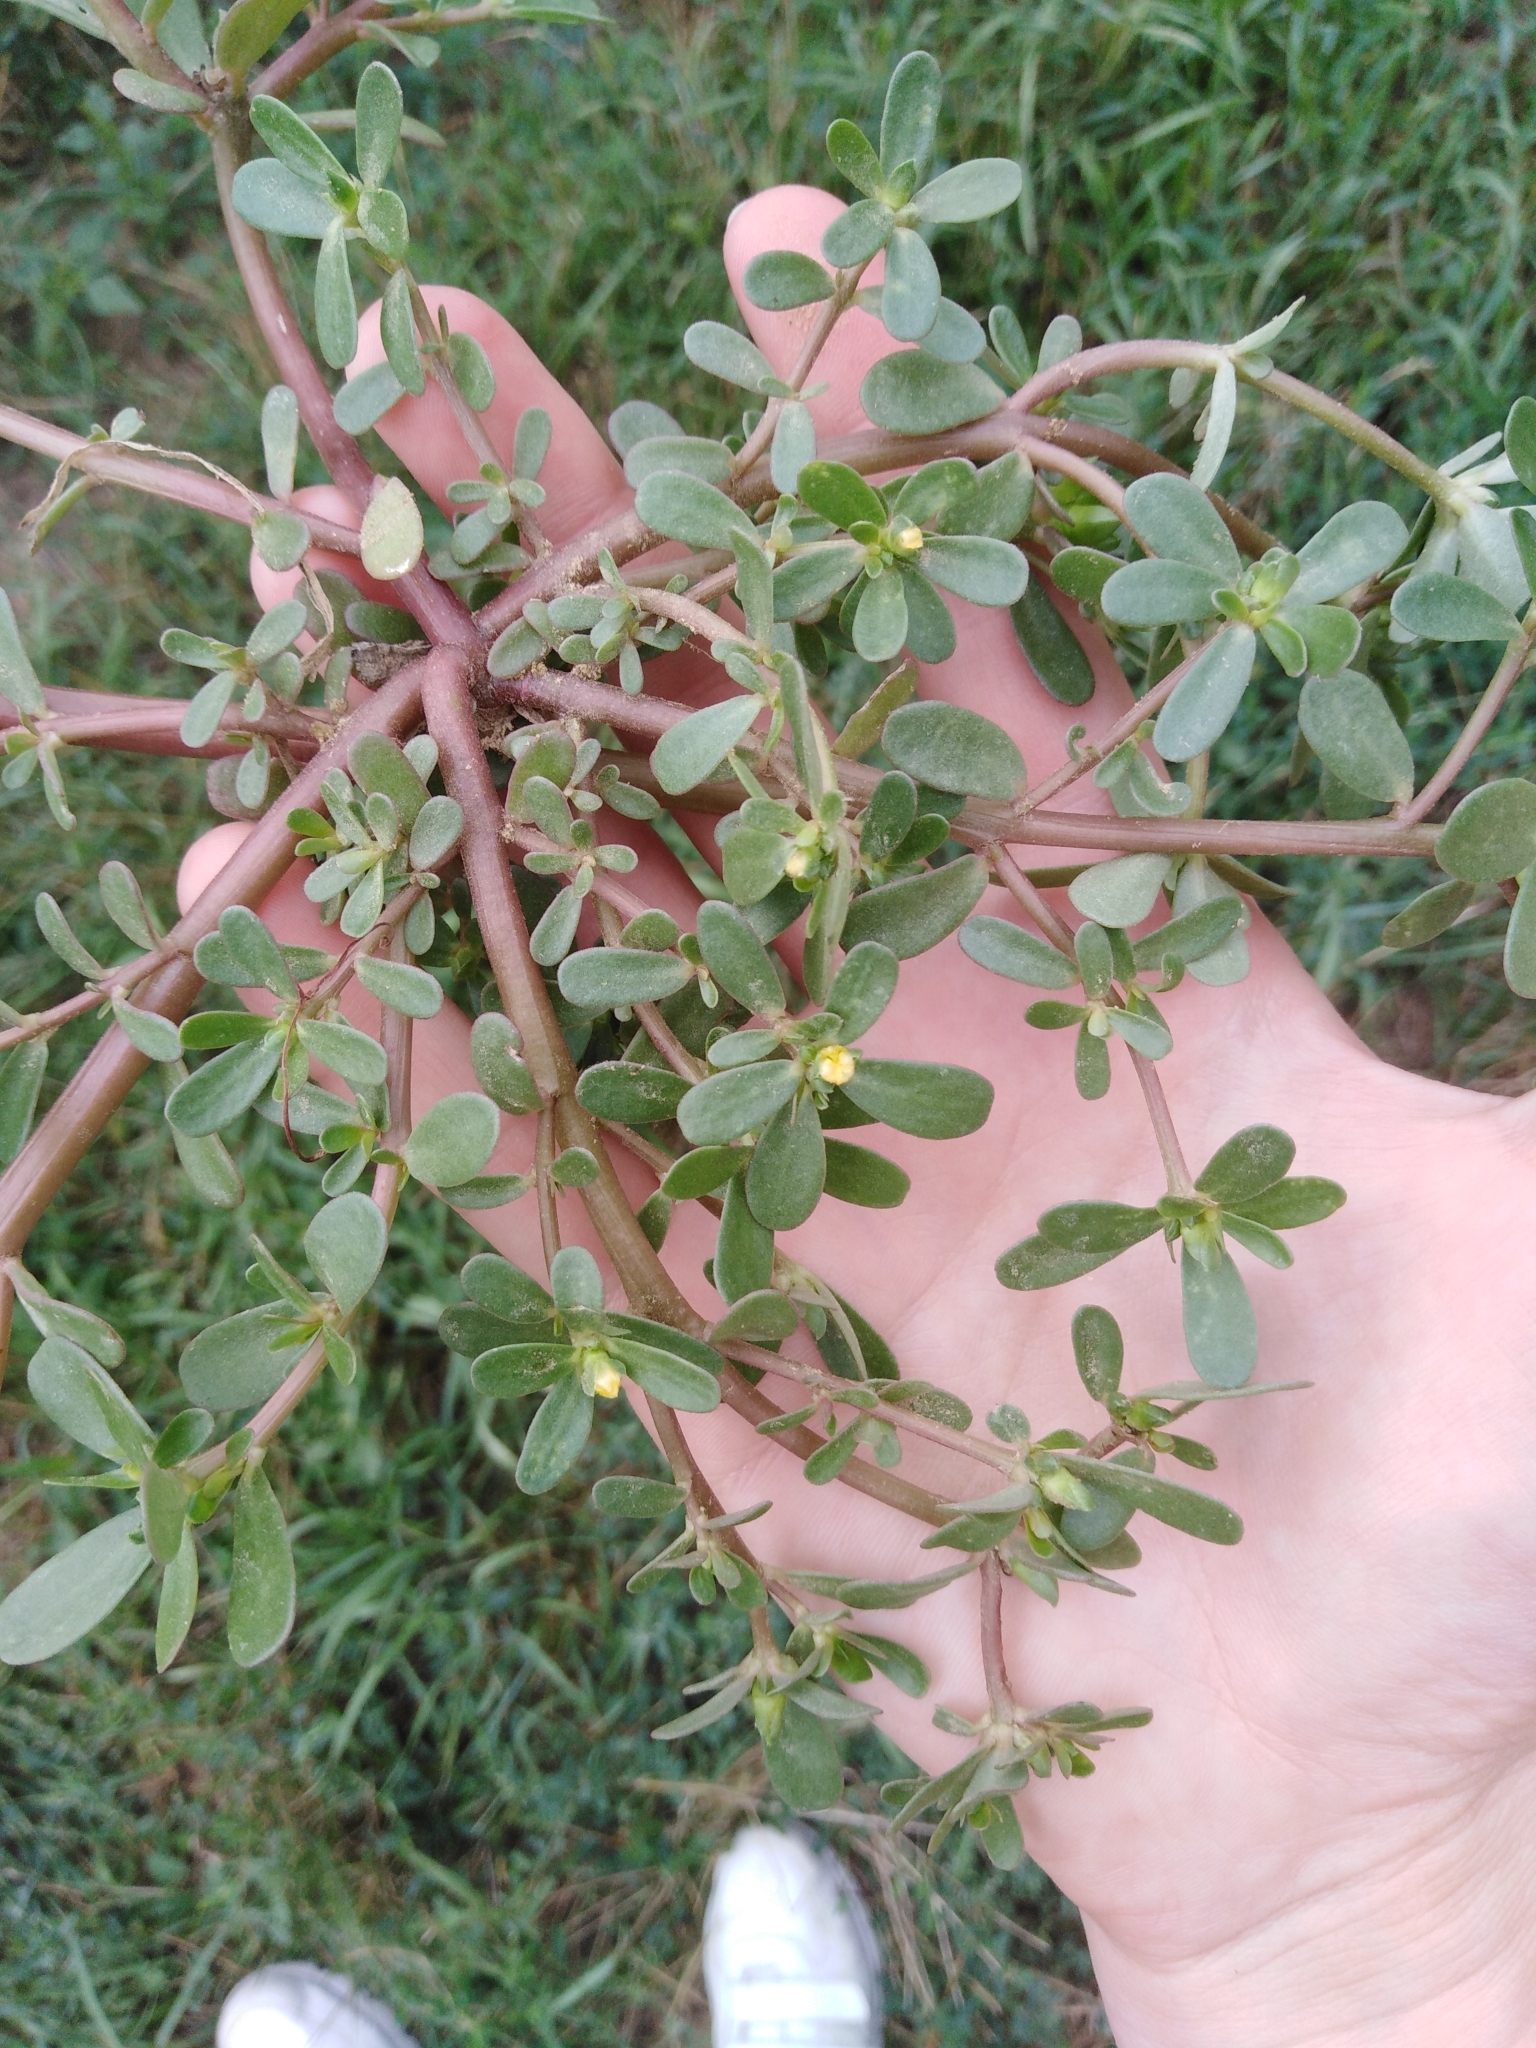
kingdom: Plantae
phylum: Tracheophyta
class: Magnoliopsida
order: Caryophyllales
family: Portulacaceae
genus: Portulaca
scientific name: Portulaca oleracea
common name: Common purslane
